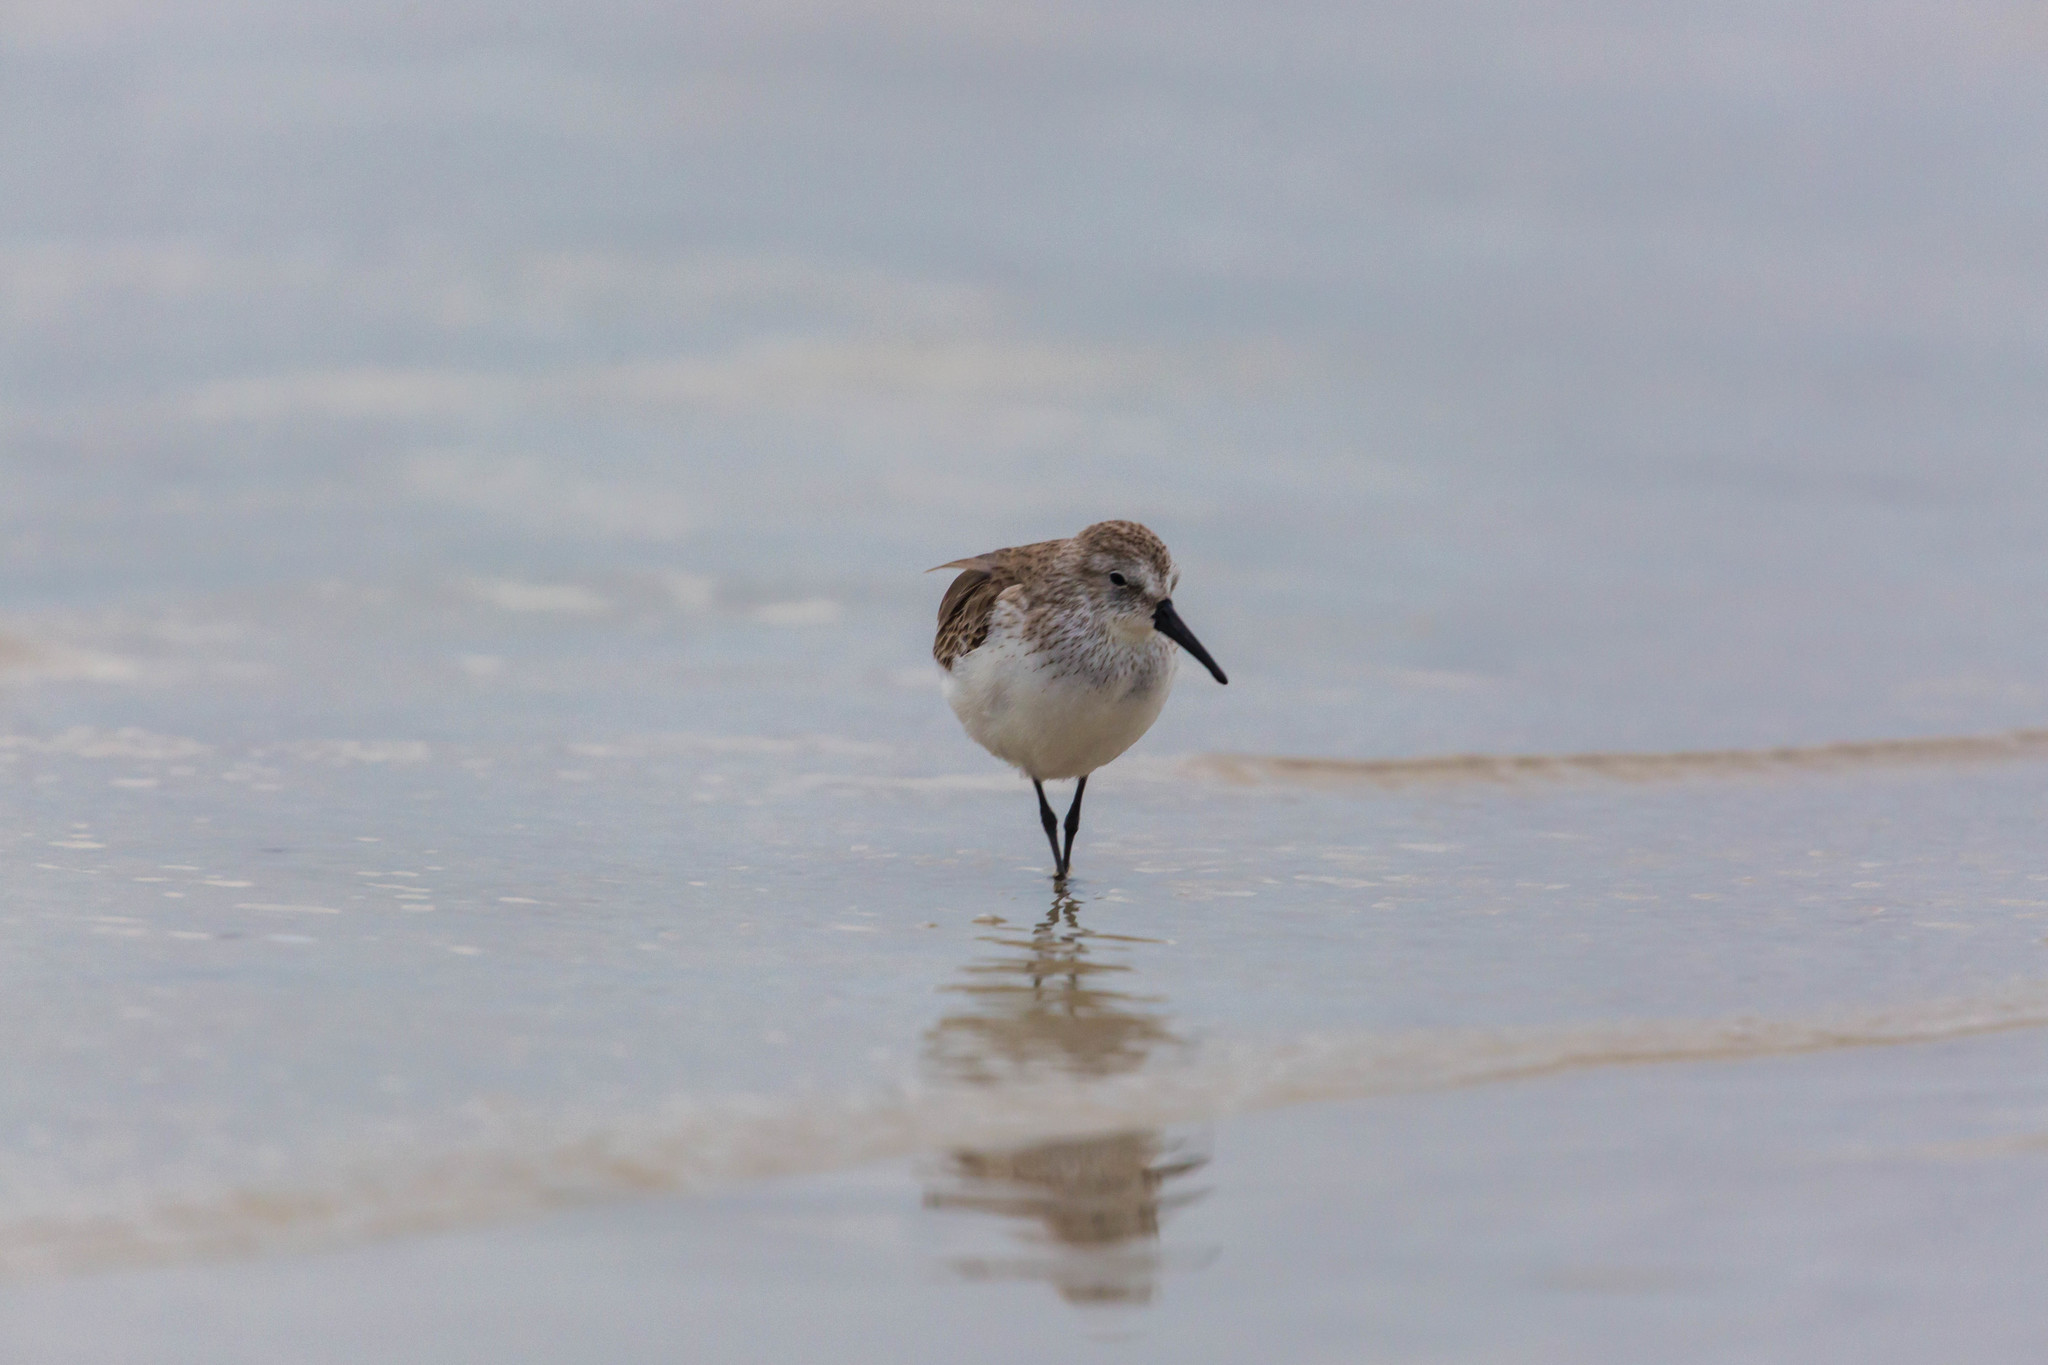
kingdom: Animalia
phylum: Chordata
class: Aves
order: Charadriiformes
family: Scolopacidae
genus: Calidris
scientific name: Calidris mauri
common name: Western sandpiper
